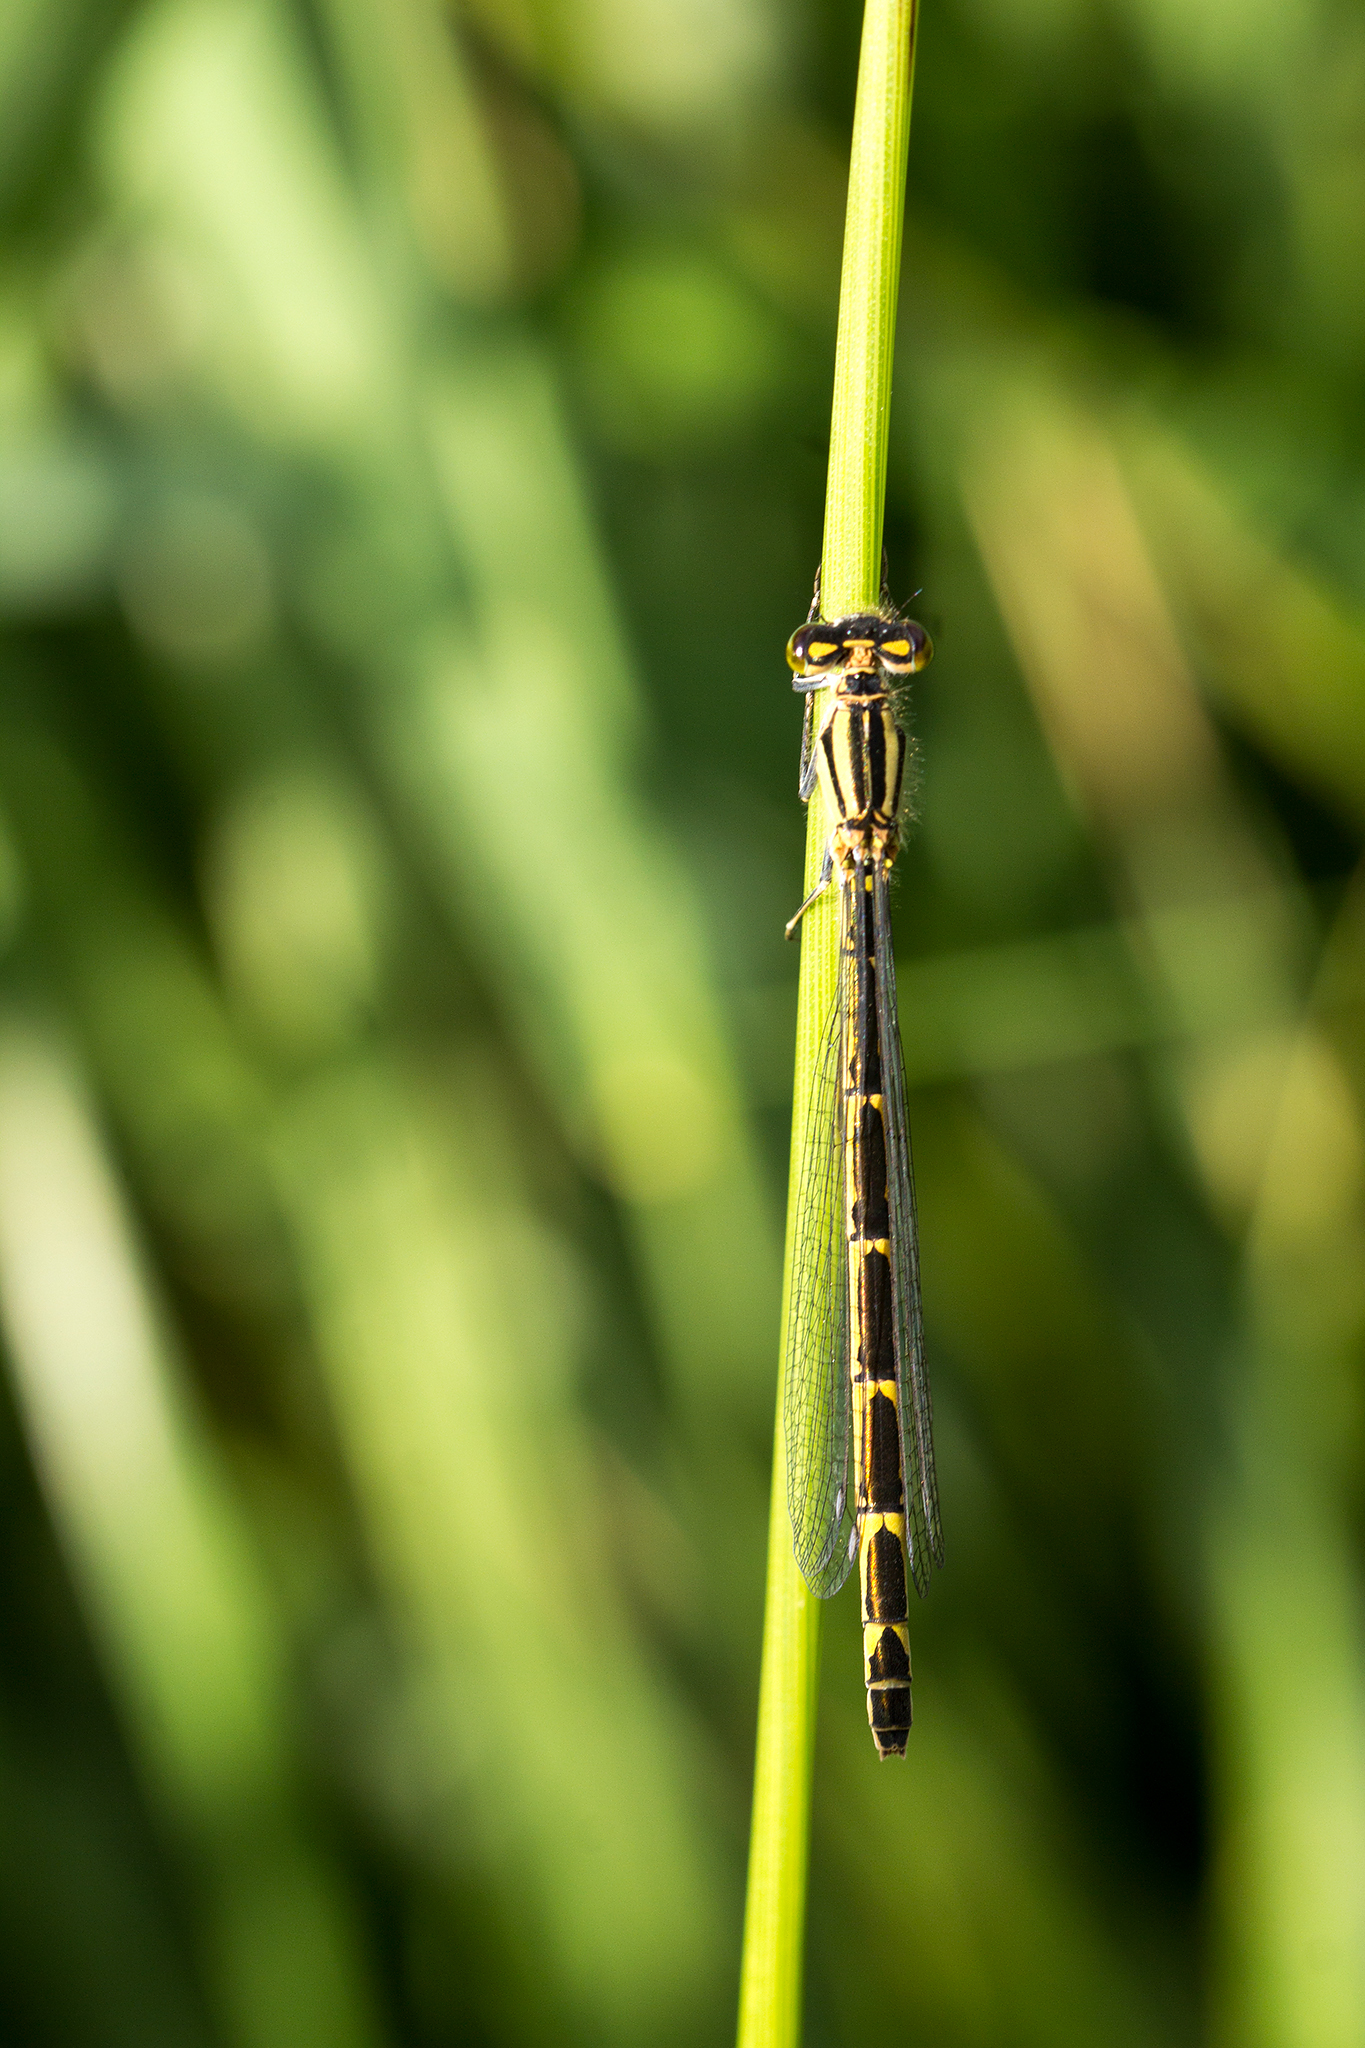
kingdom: Animalia
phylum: Arthropoda
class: Insecta
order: Odonata
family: Coenagrionidae
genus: Enallagma
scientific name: Enallagma cyathigerum
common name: Common blue damselfly
